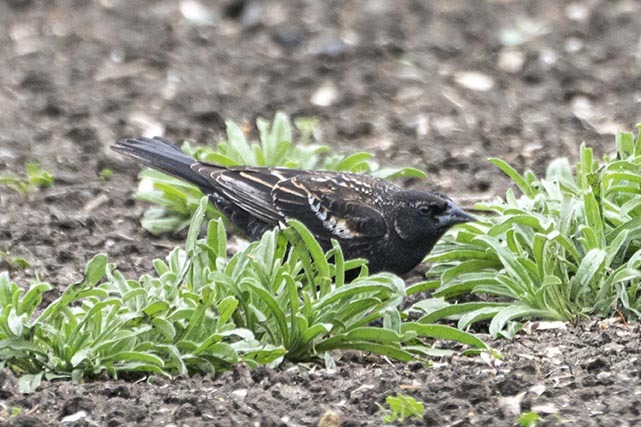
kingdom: Animalia
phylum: Chordata
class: Aves
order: Passeriformes
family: Icteridae
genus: Molothrus
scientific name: Molothrus ater
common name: Brown-headed cowbird
